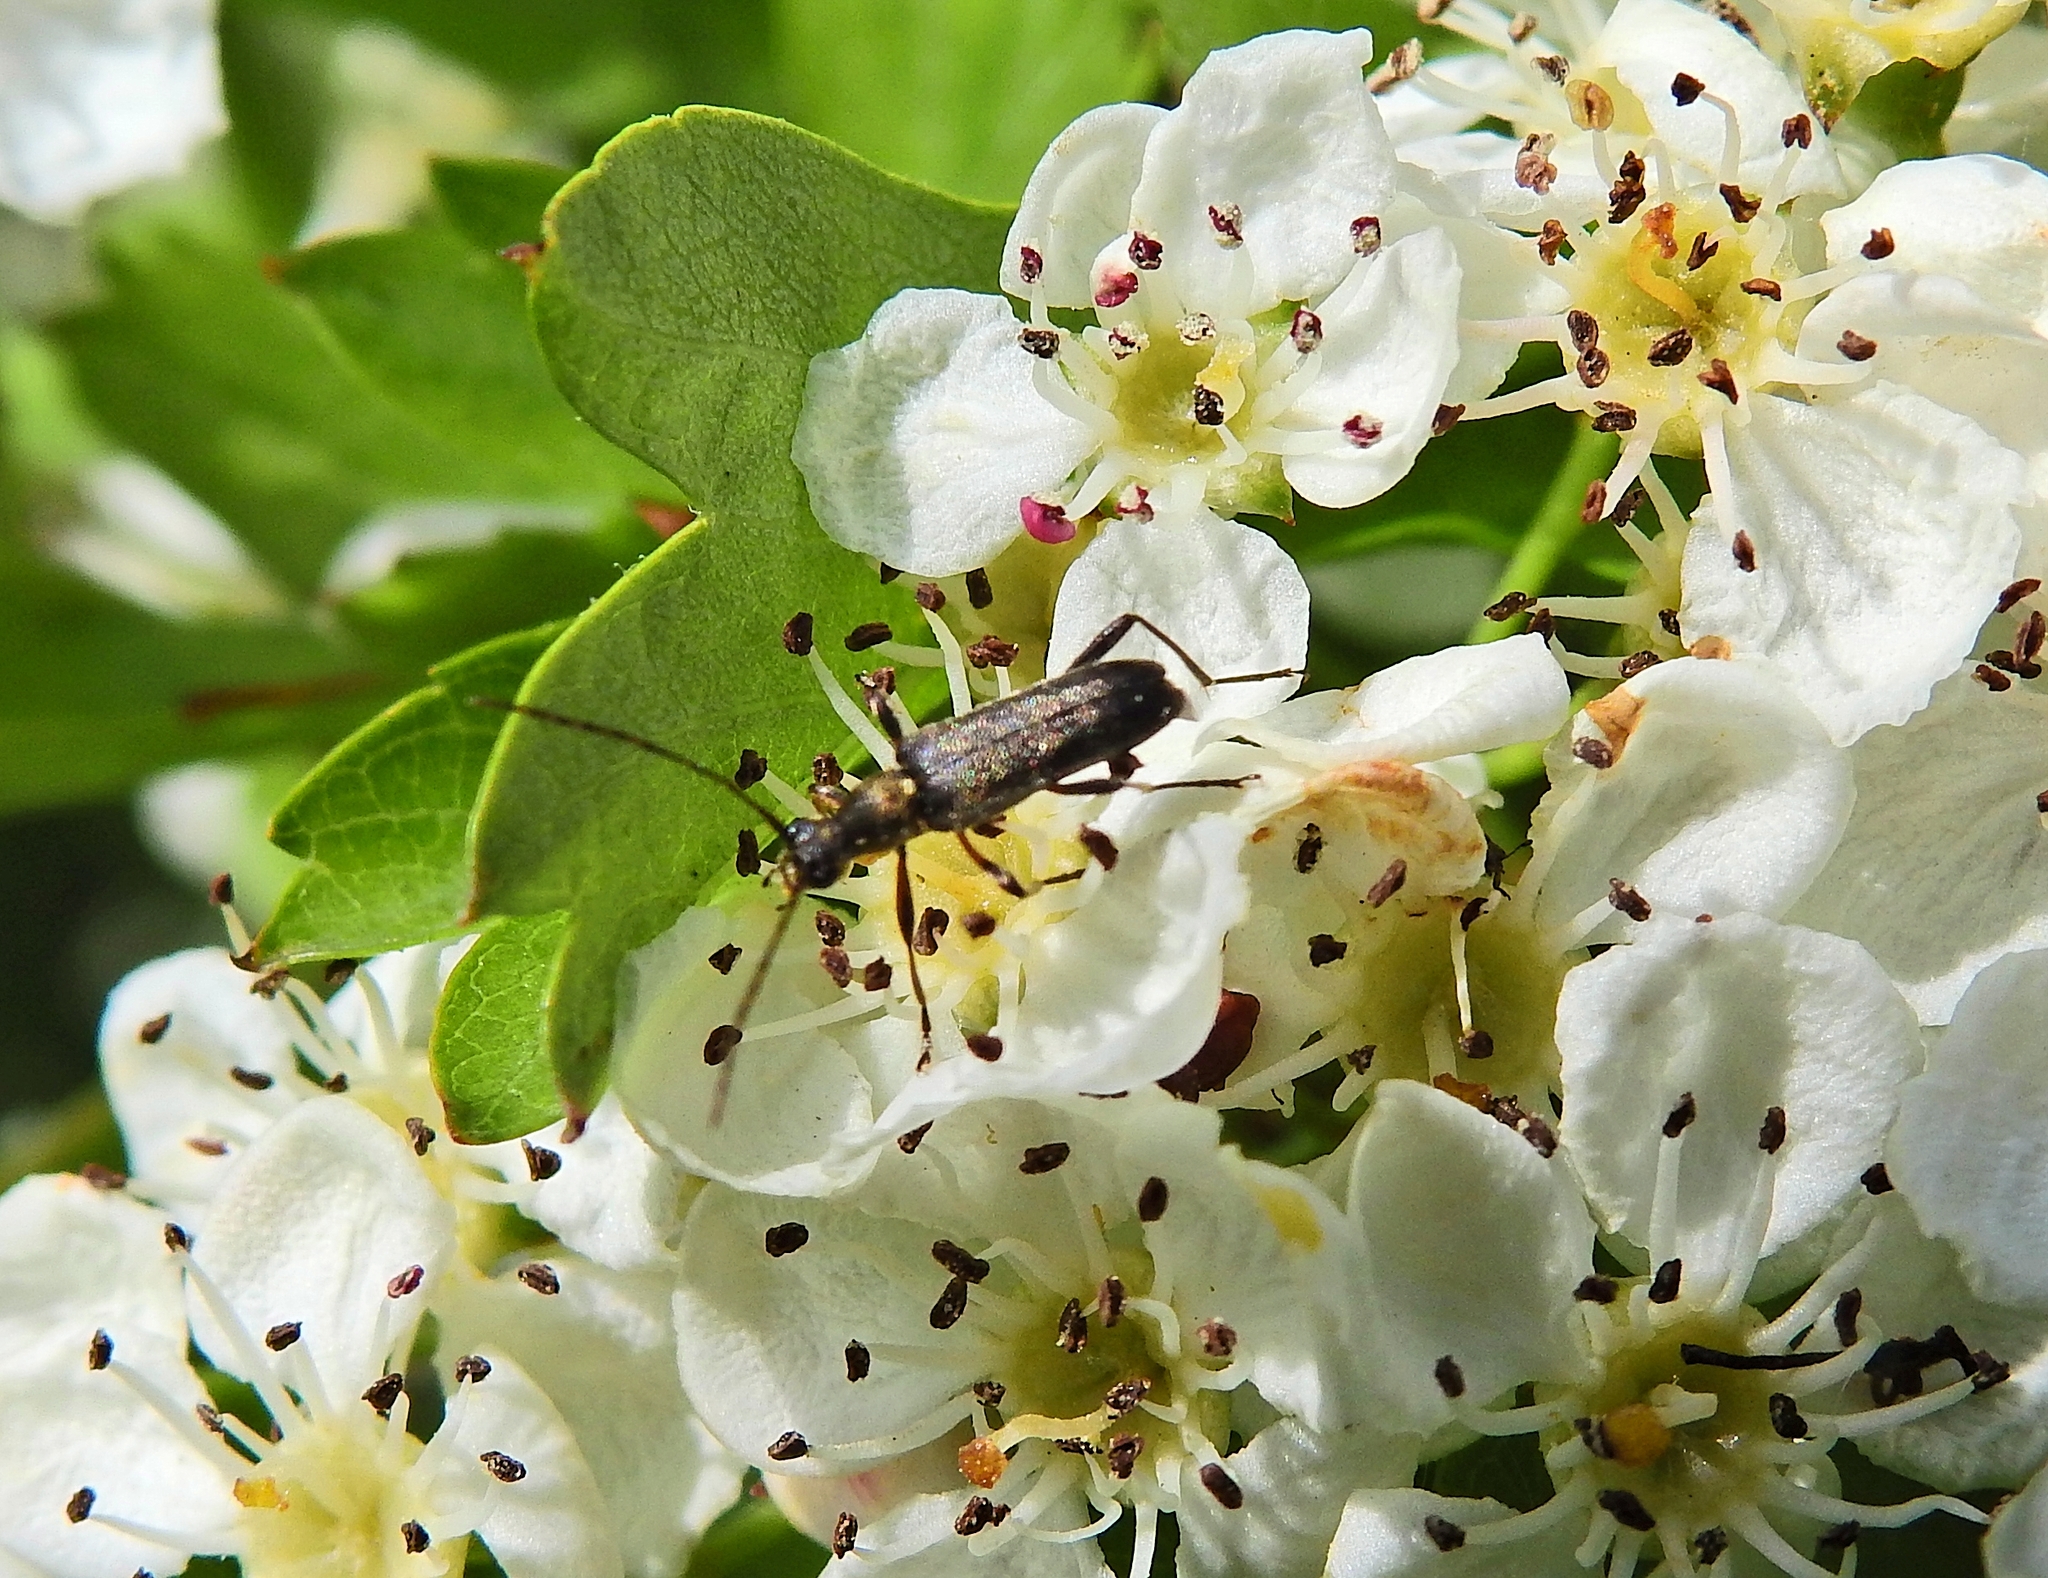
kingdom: Animalia
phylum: Arthropoda
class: Insecta
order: Coleoptera
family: Cerambycidae
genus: Grammoptera
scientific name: Grammoptera ruficornis
